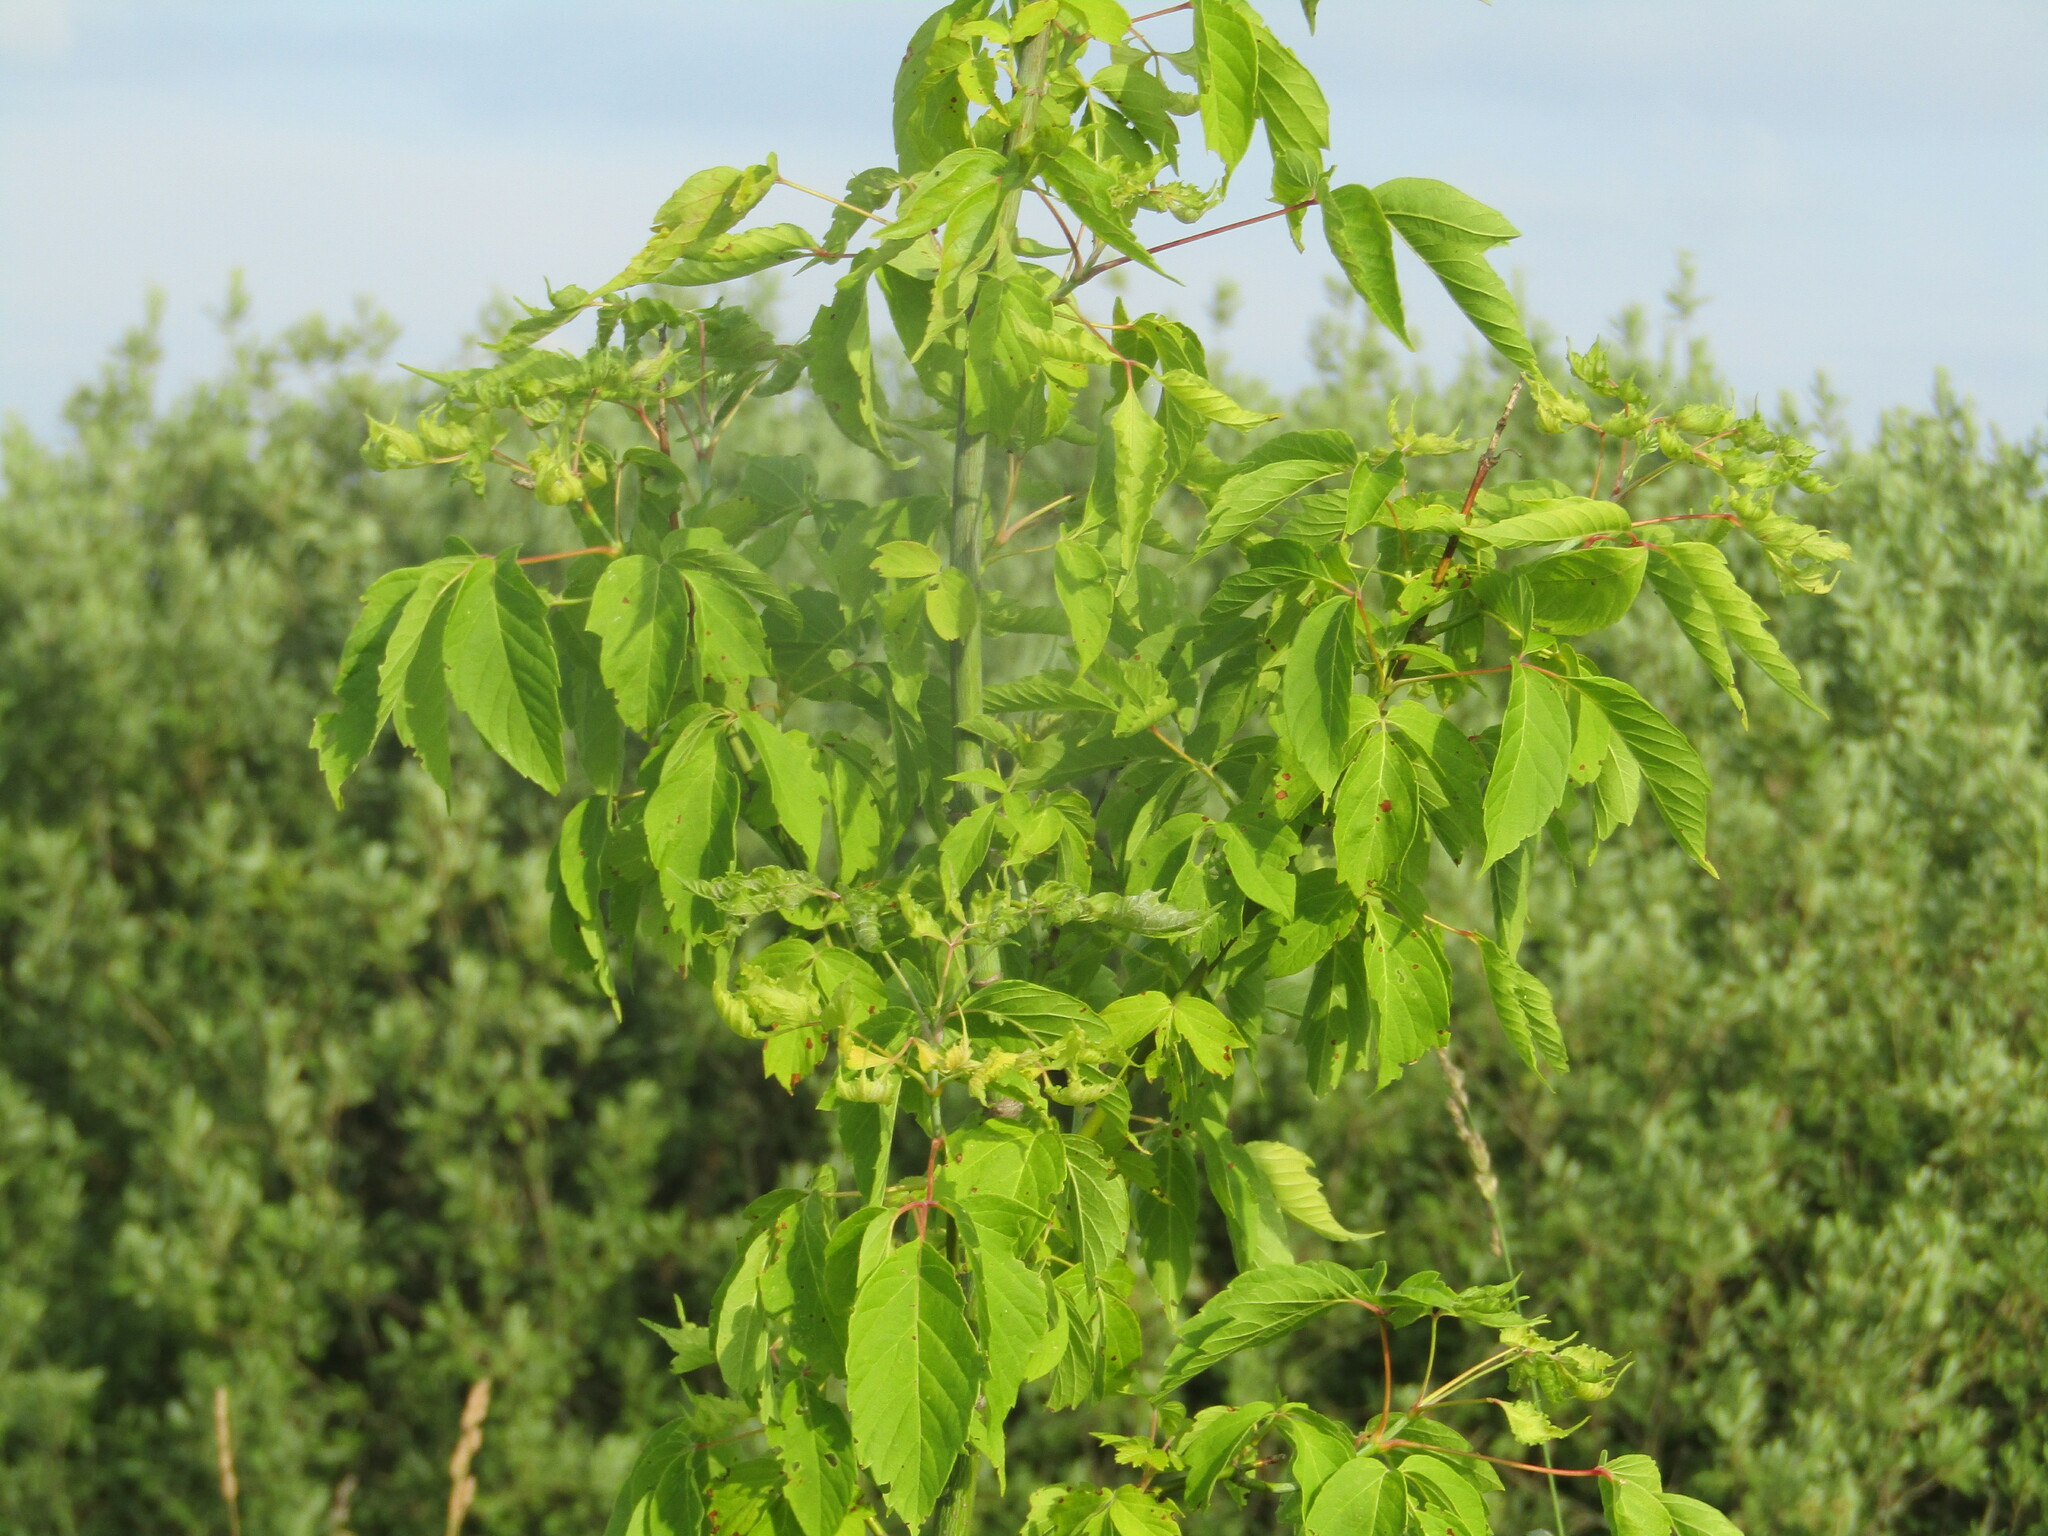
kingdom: Plantae
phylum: Tracheophyta
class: Magnoliopsida
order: Sapindales
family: Sapindaceae
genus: Acer
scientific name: Acer negundo
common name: Ashleaf maple
